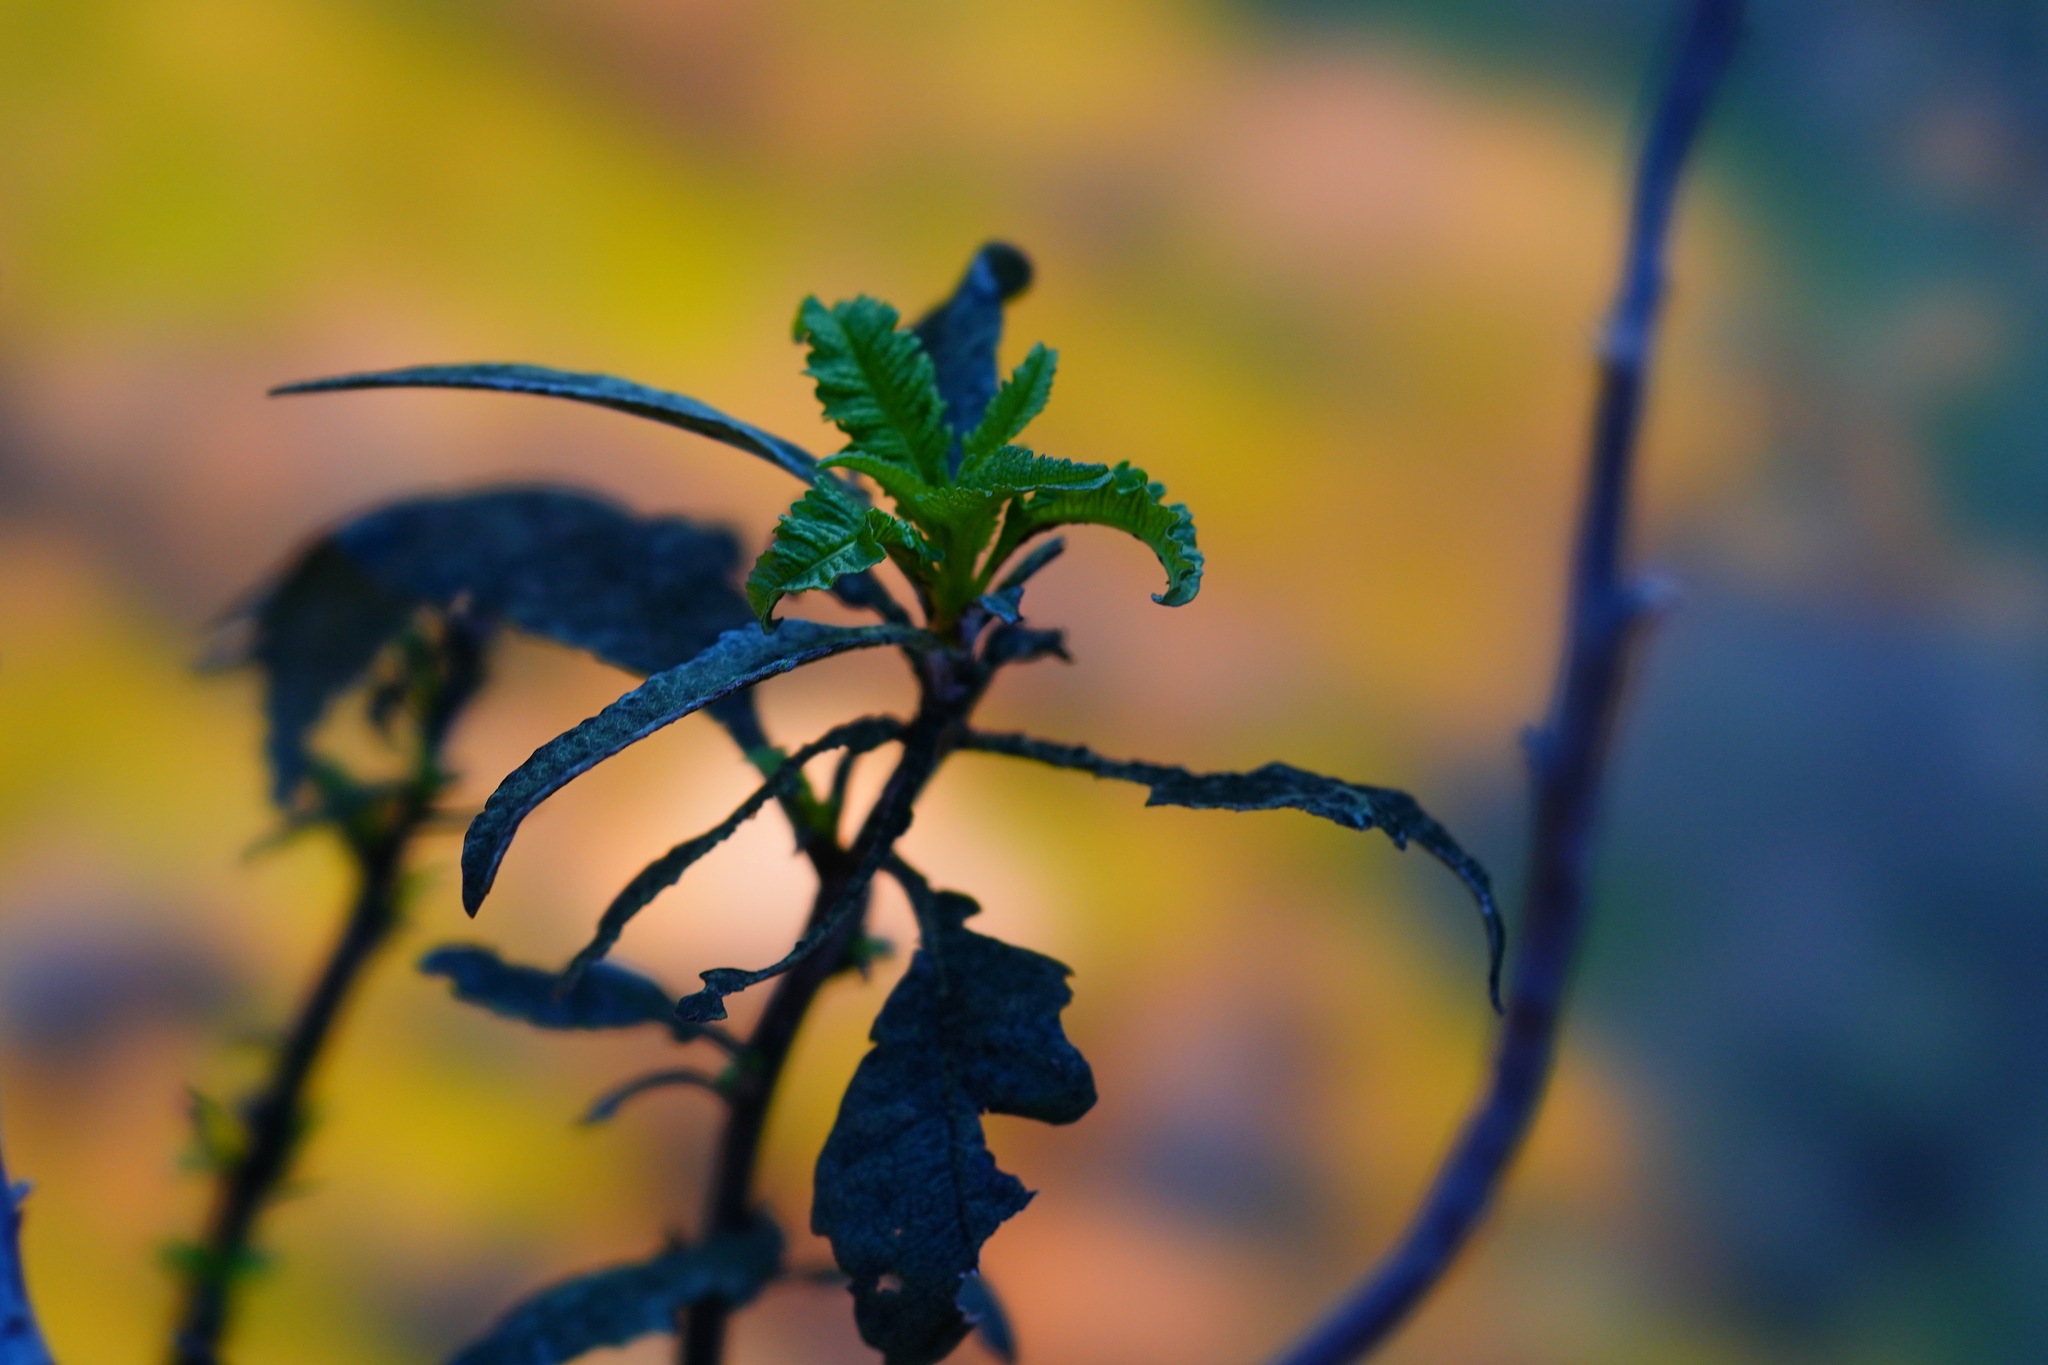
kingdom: Plantae
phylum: Tracheophyta
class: Magnoliopsida
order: Boraginales
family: Namaceae
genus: Eriodictyon
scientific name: Eriodictyon californicum
